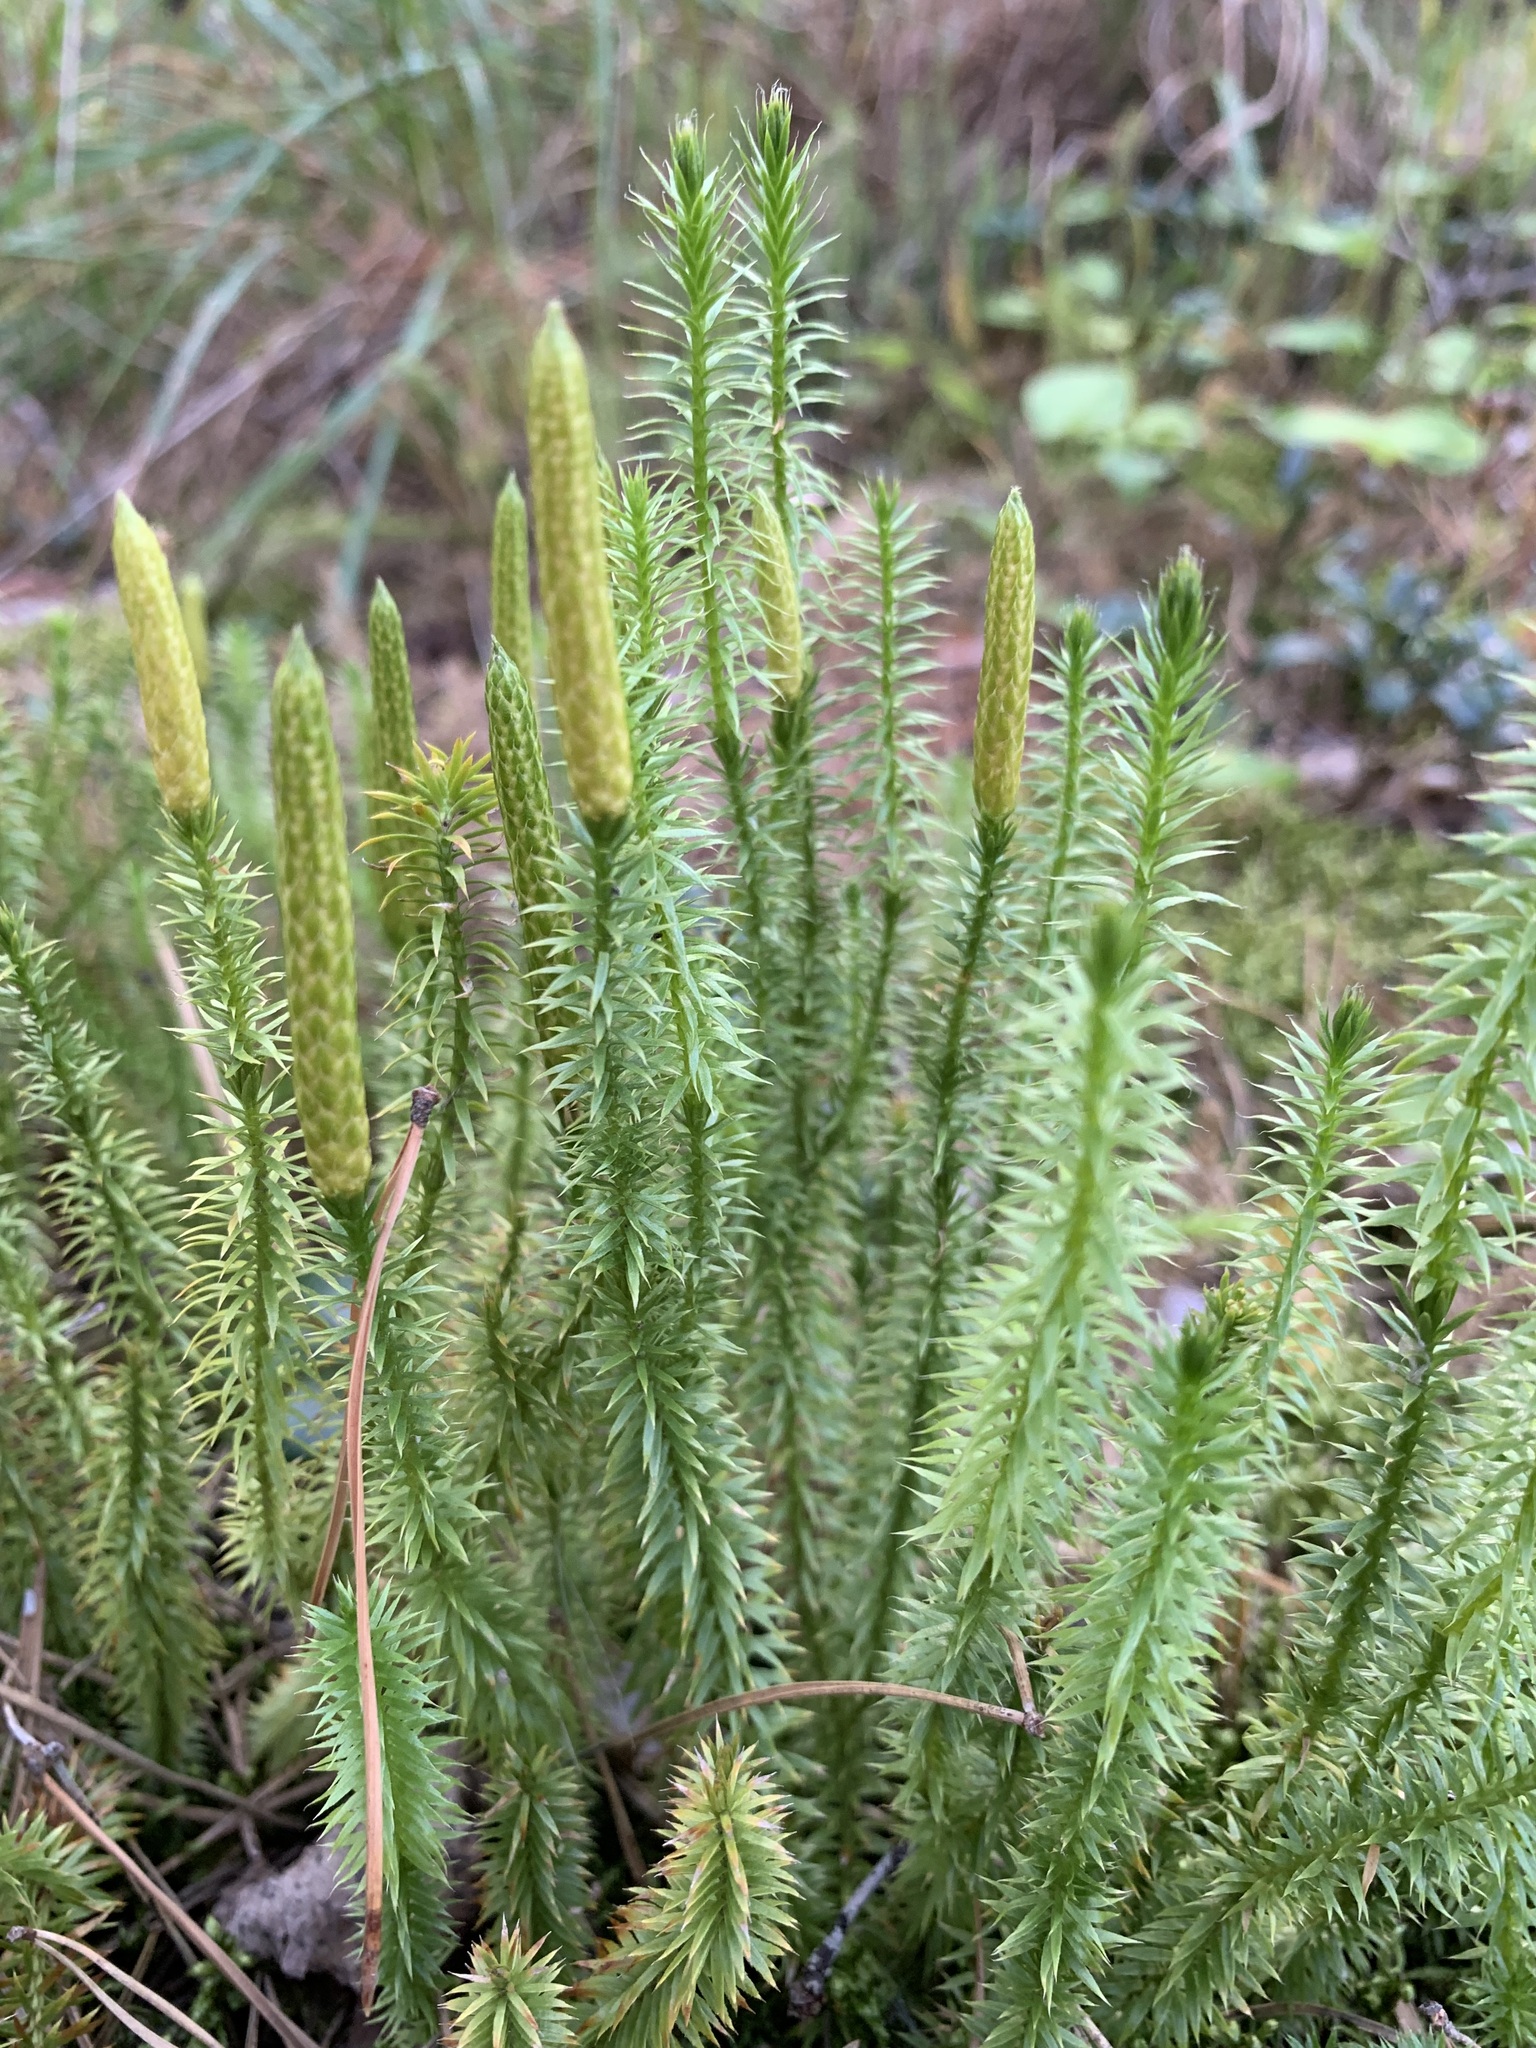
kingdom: Plantae
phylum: Tracheophyta
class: Lycopodiopsida
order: Lycopodiales
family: Lycopodiaceae
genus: Spinulum
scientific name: Spinulum annotinum
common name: Interrupted club-moss
